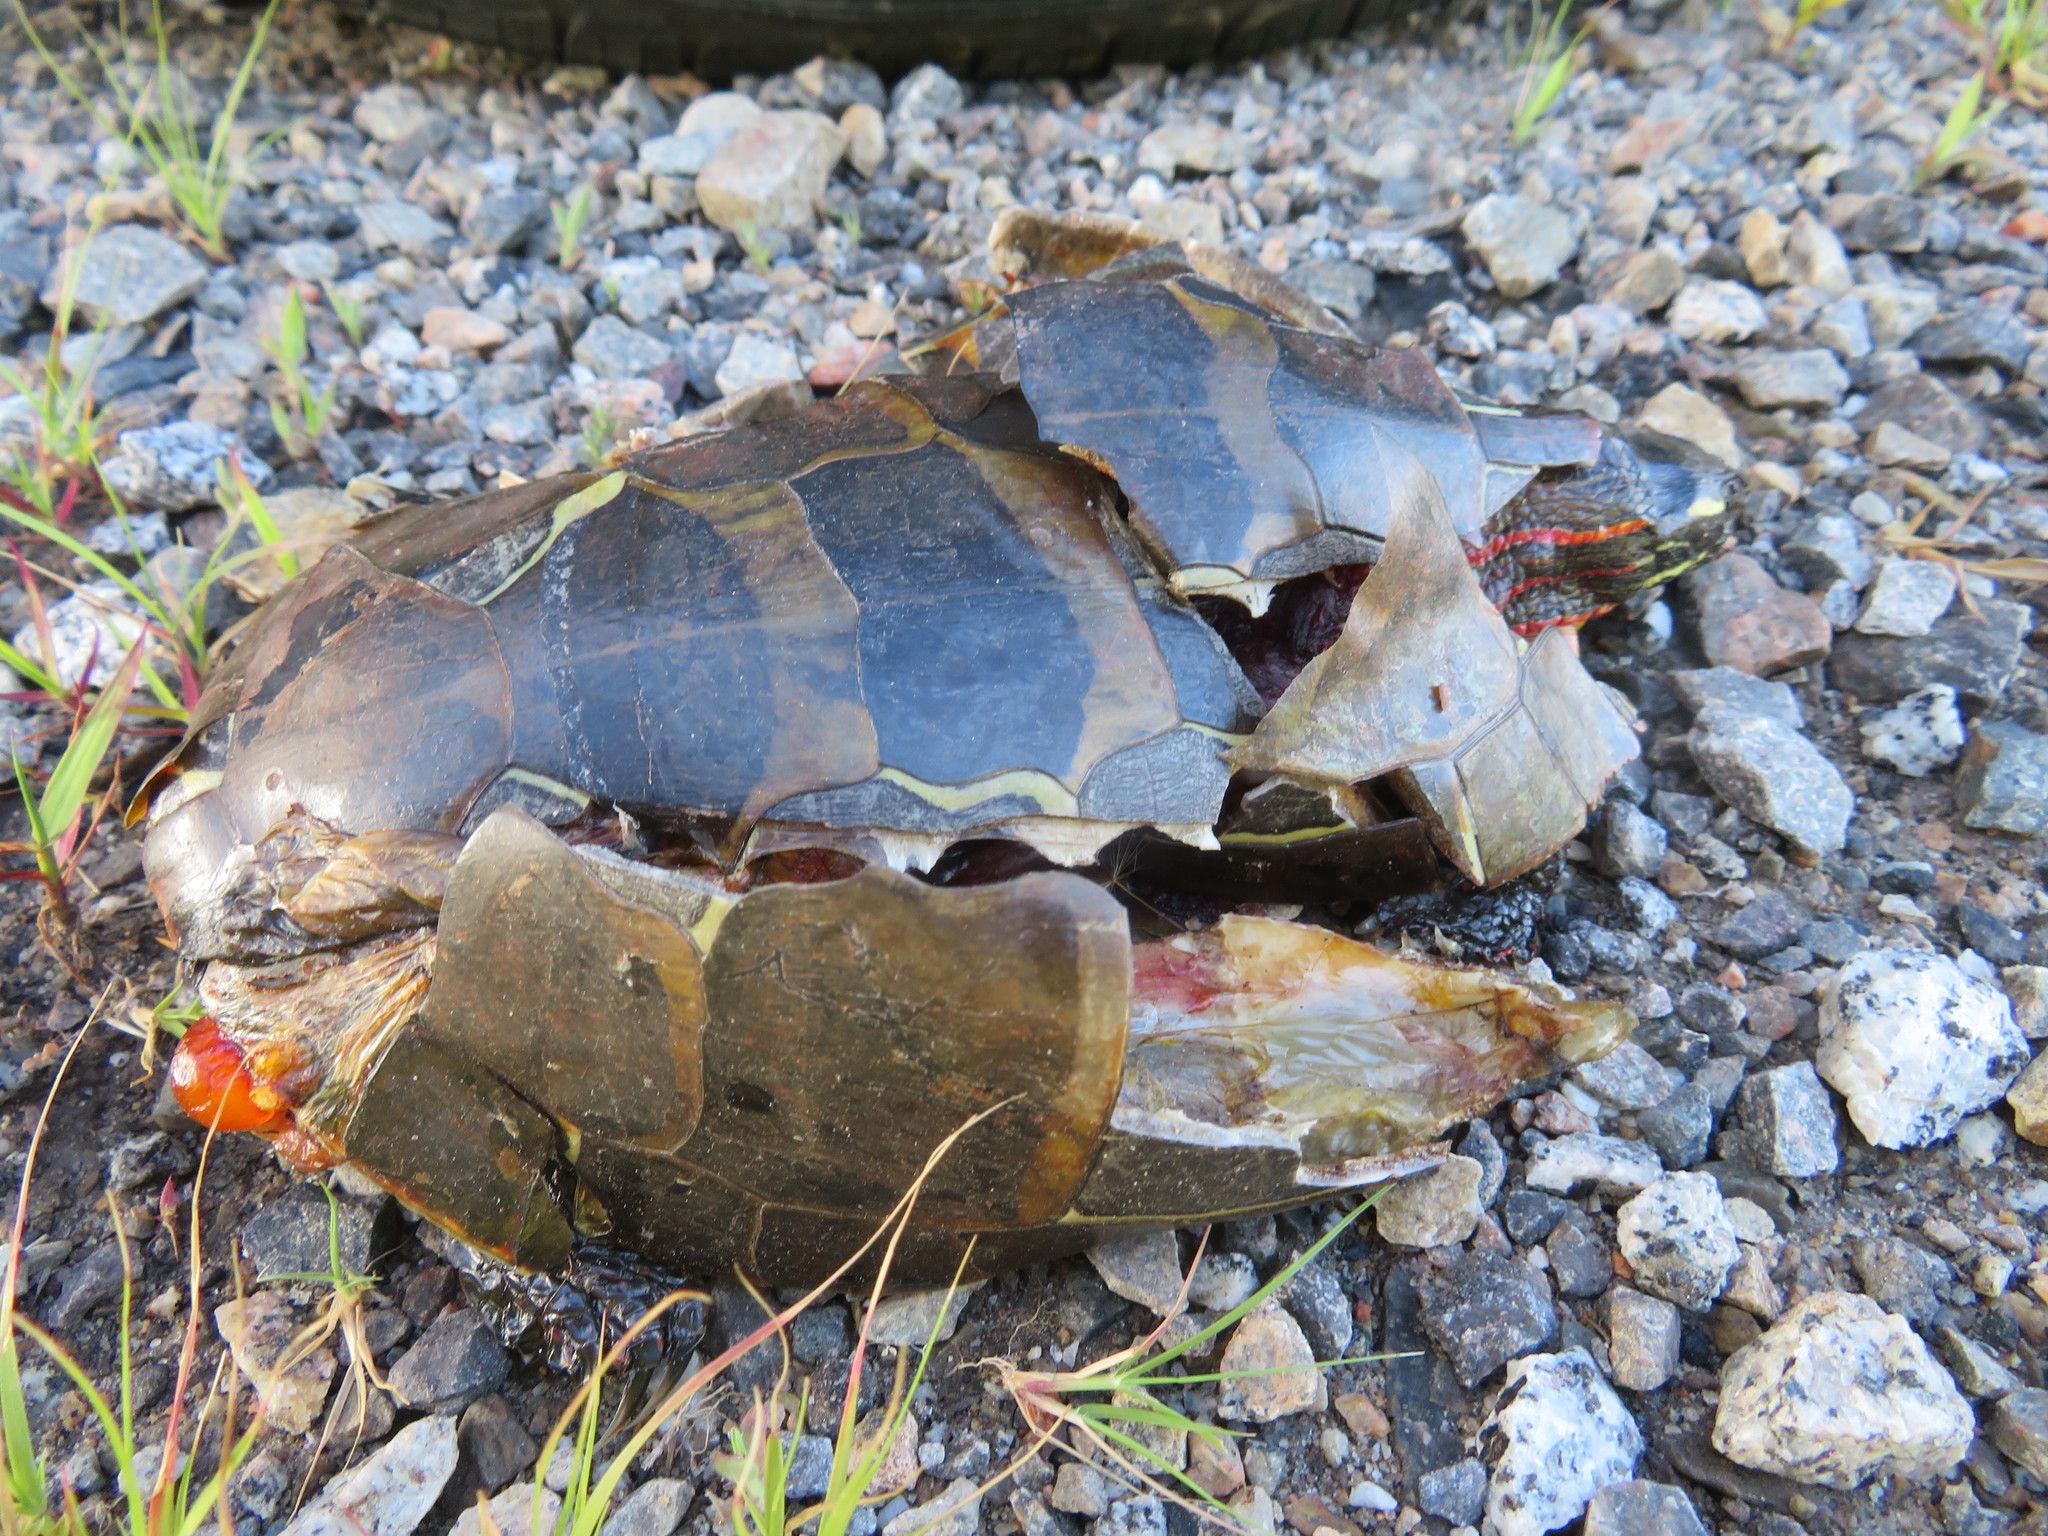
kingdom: Animalia
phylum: Chordata
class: Testudines
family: Emydidae
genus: Chrysemys
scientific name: Chrysemys picta
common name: Painted turtle
